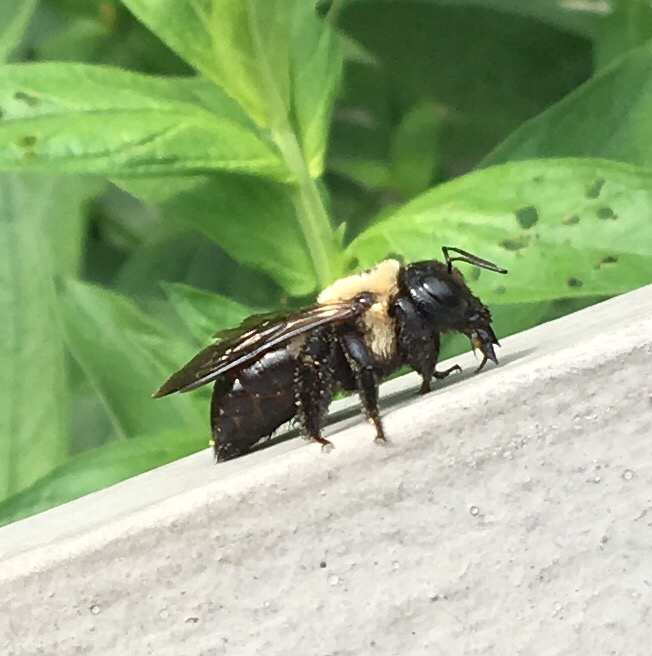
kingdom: Animalia
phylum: Arthropoda
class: Insecta
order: Hymenoptera
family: Apidae
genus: Xylocopa
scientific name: Xylocopa virginica
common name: Carpenter bee
